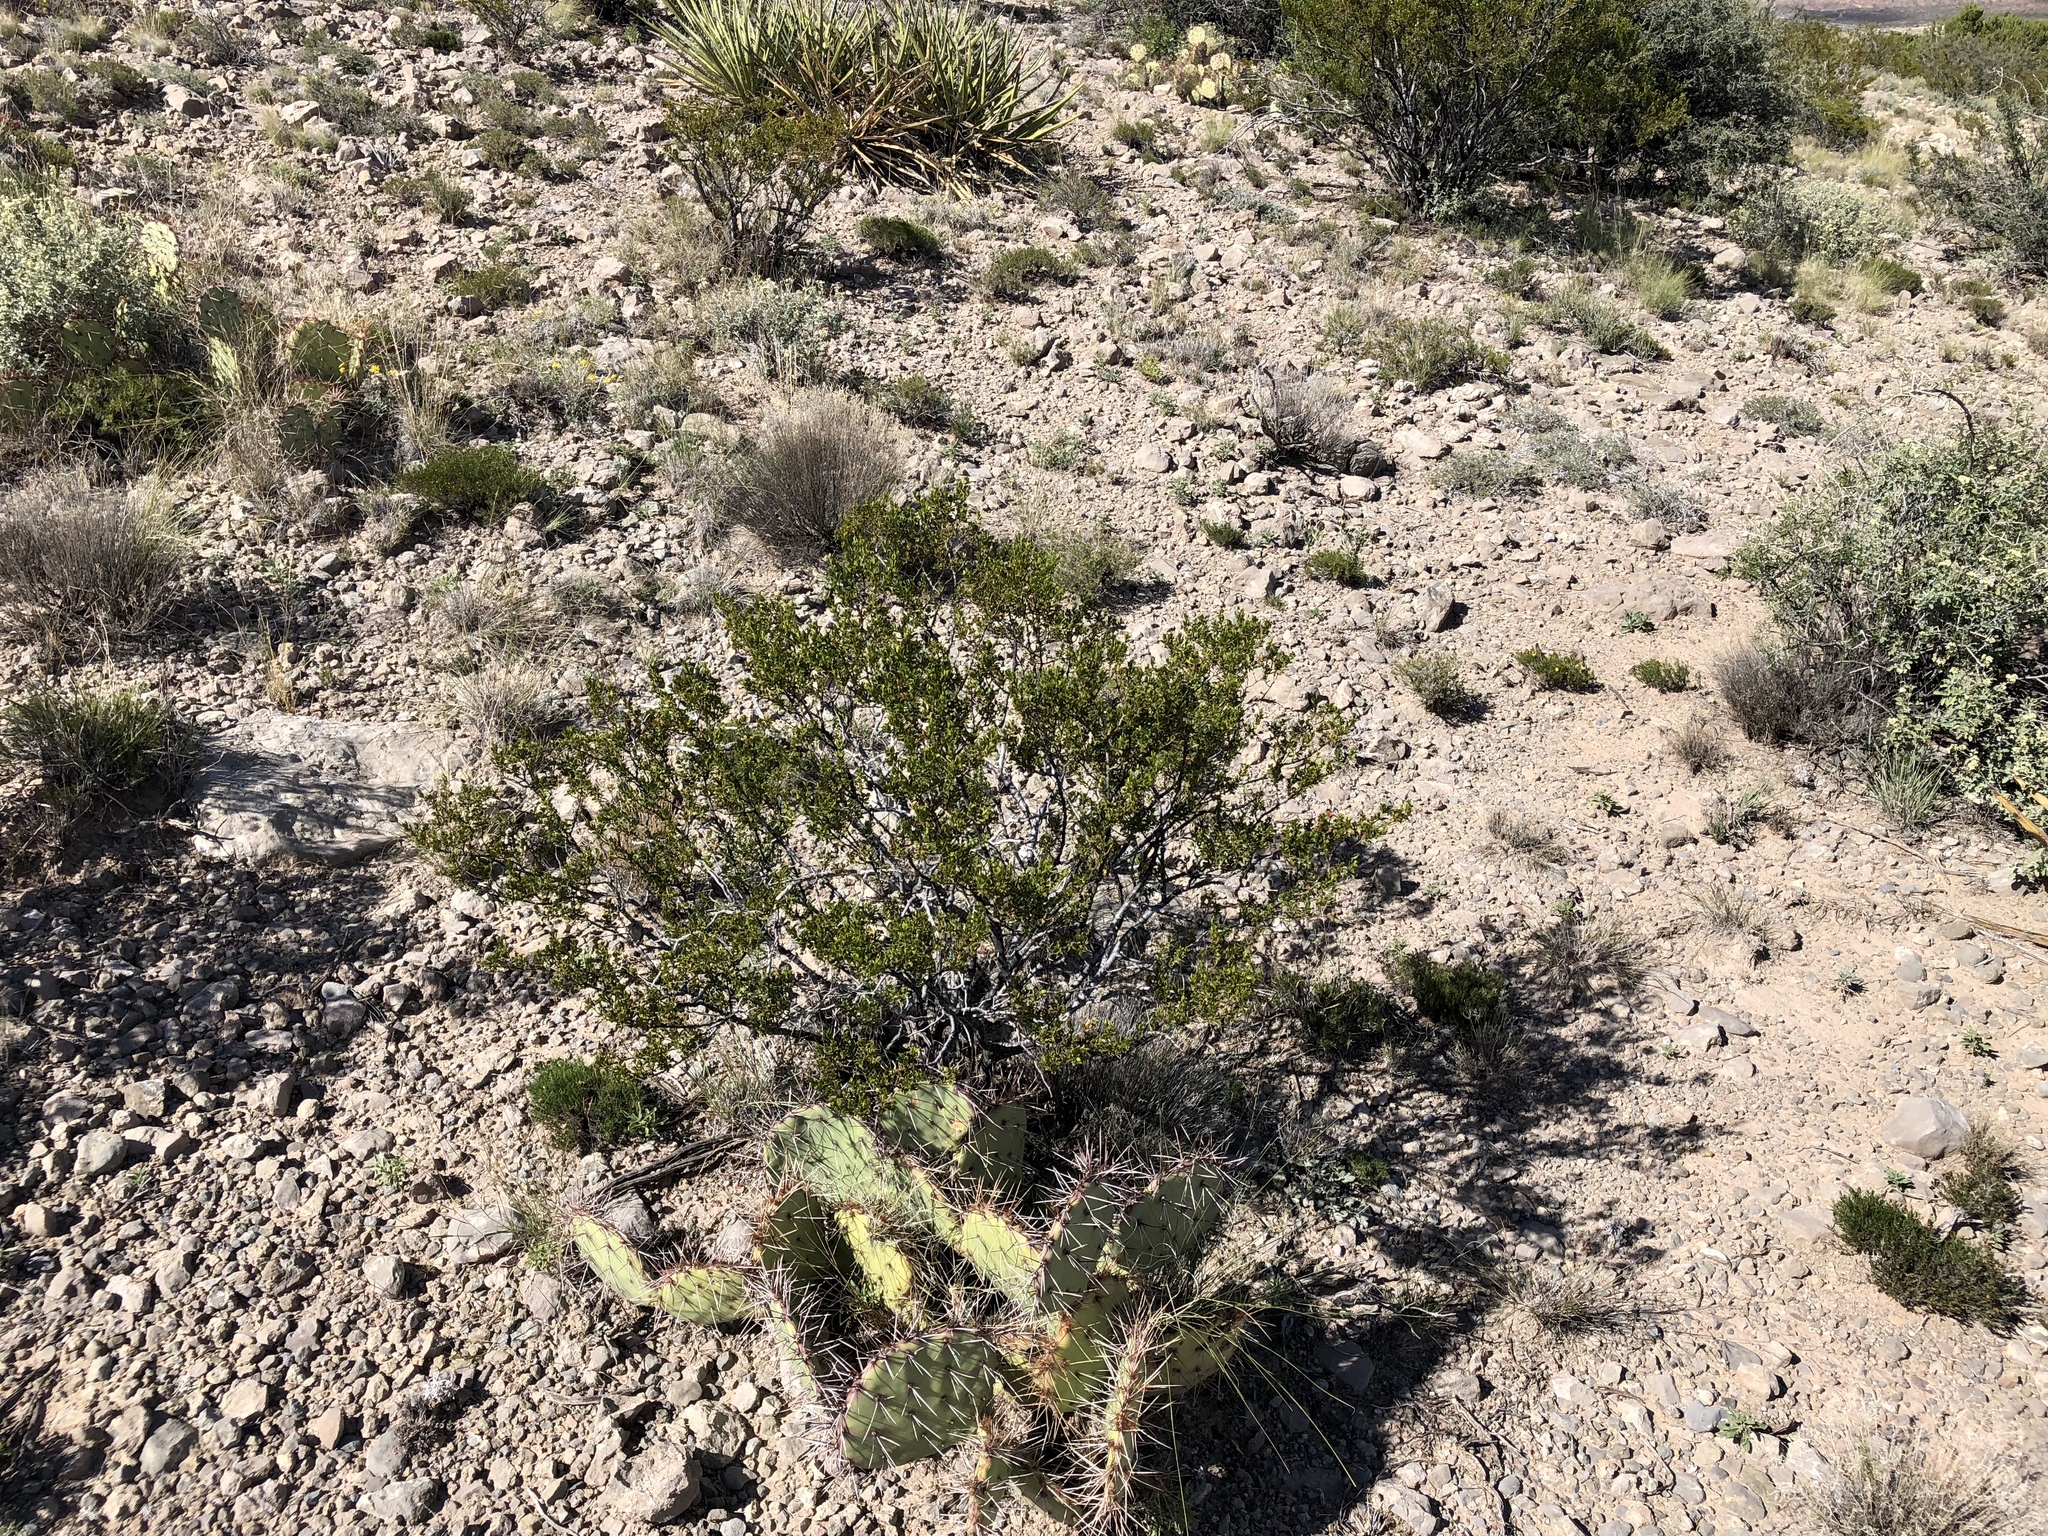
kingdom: Plantae
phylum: Tracheophyta
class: Magnoliopsida
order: Zygophyllales
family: Zygophyllaceae
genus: Larrea
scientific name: Larrea tridentata
